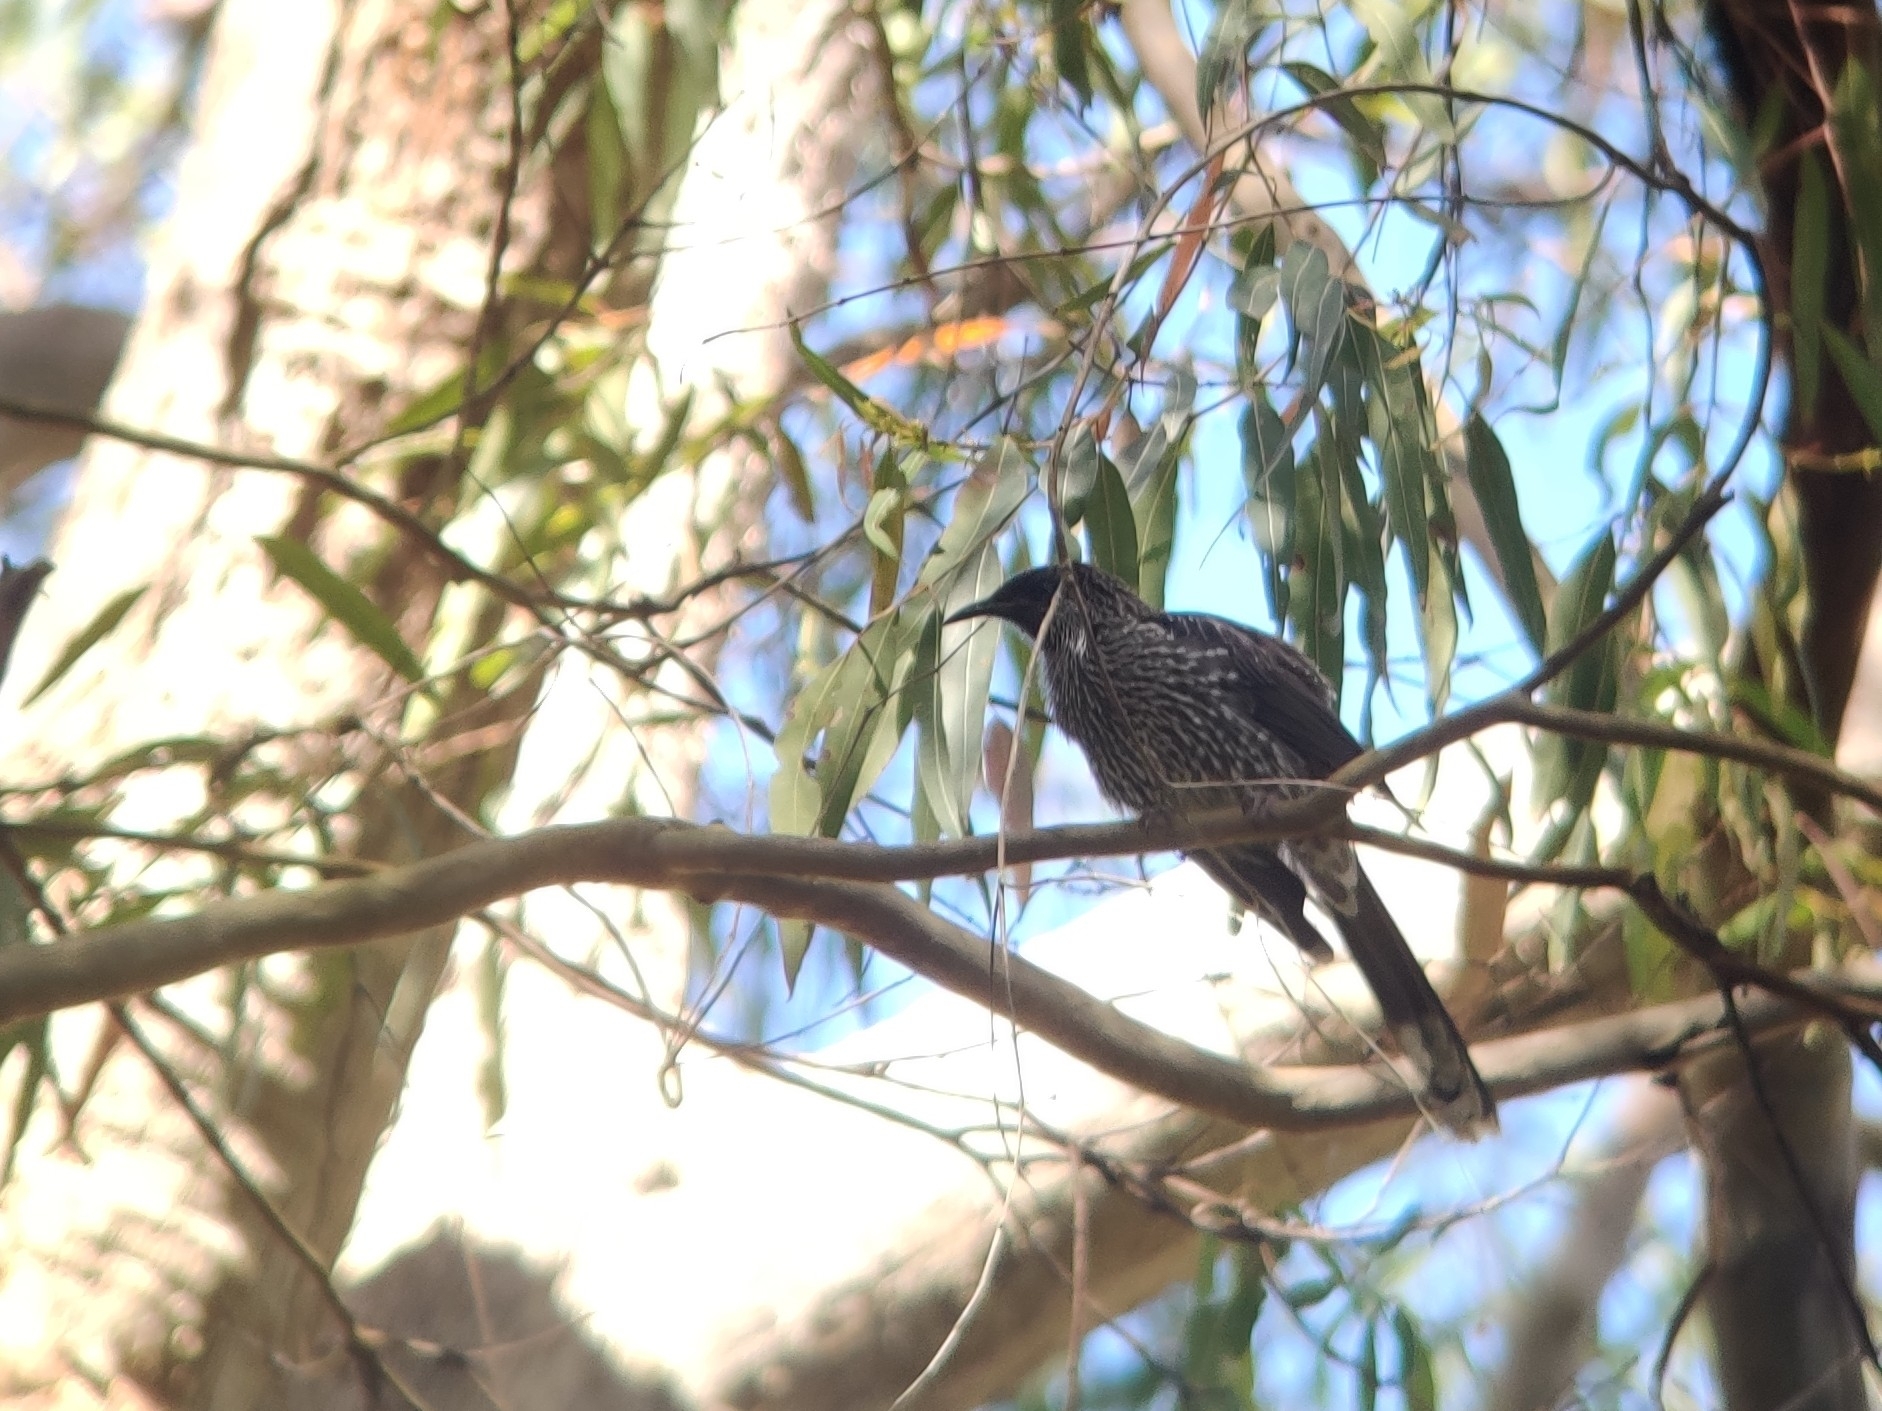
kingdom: Animalia
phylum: Chordata
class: Aves
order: Passeriformes
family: Meliphagidae
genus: Anthochaera
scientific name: Anthochaera chrysoptera
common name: Little wattlebird
